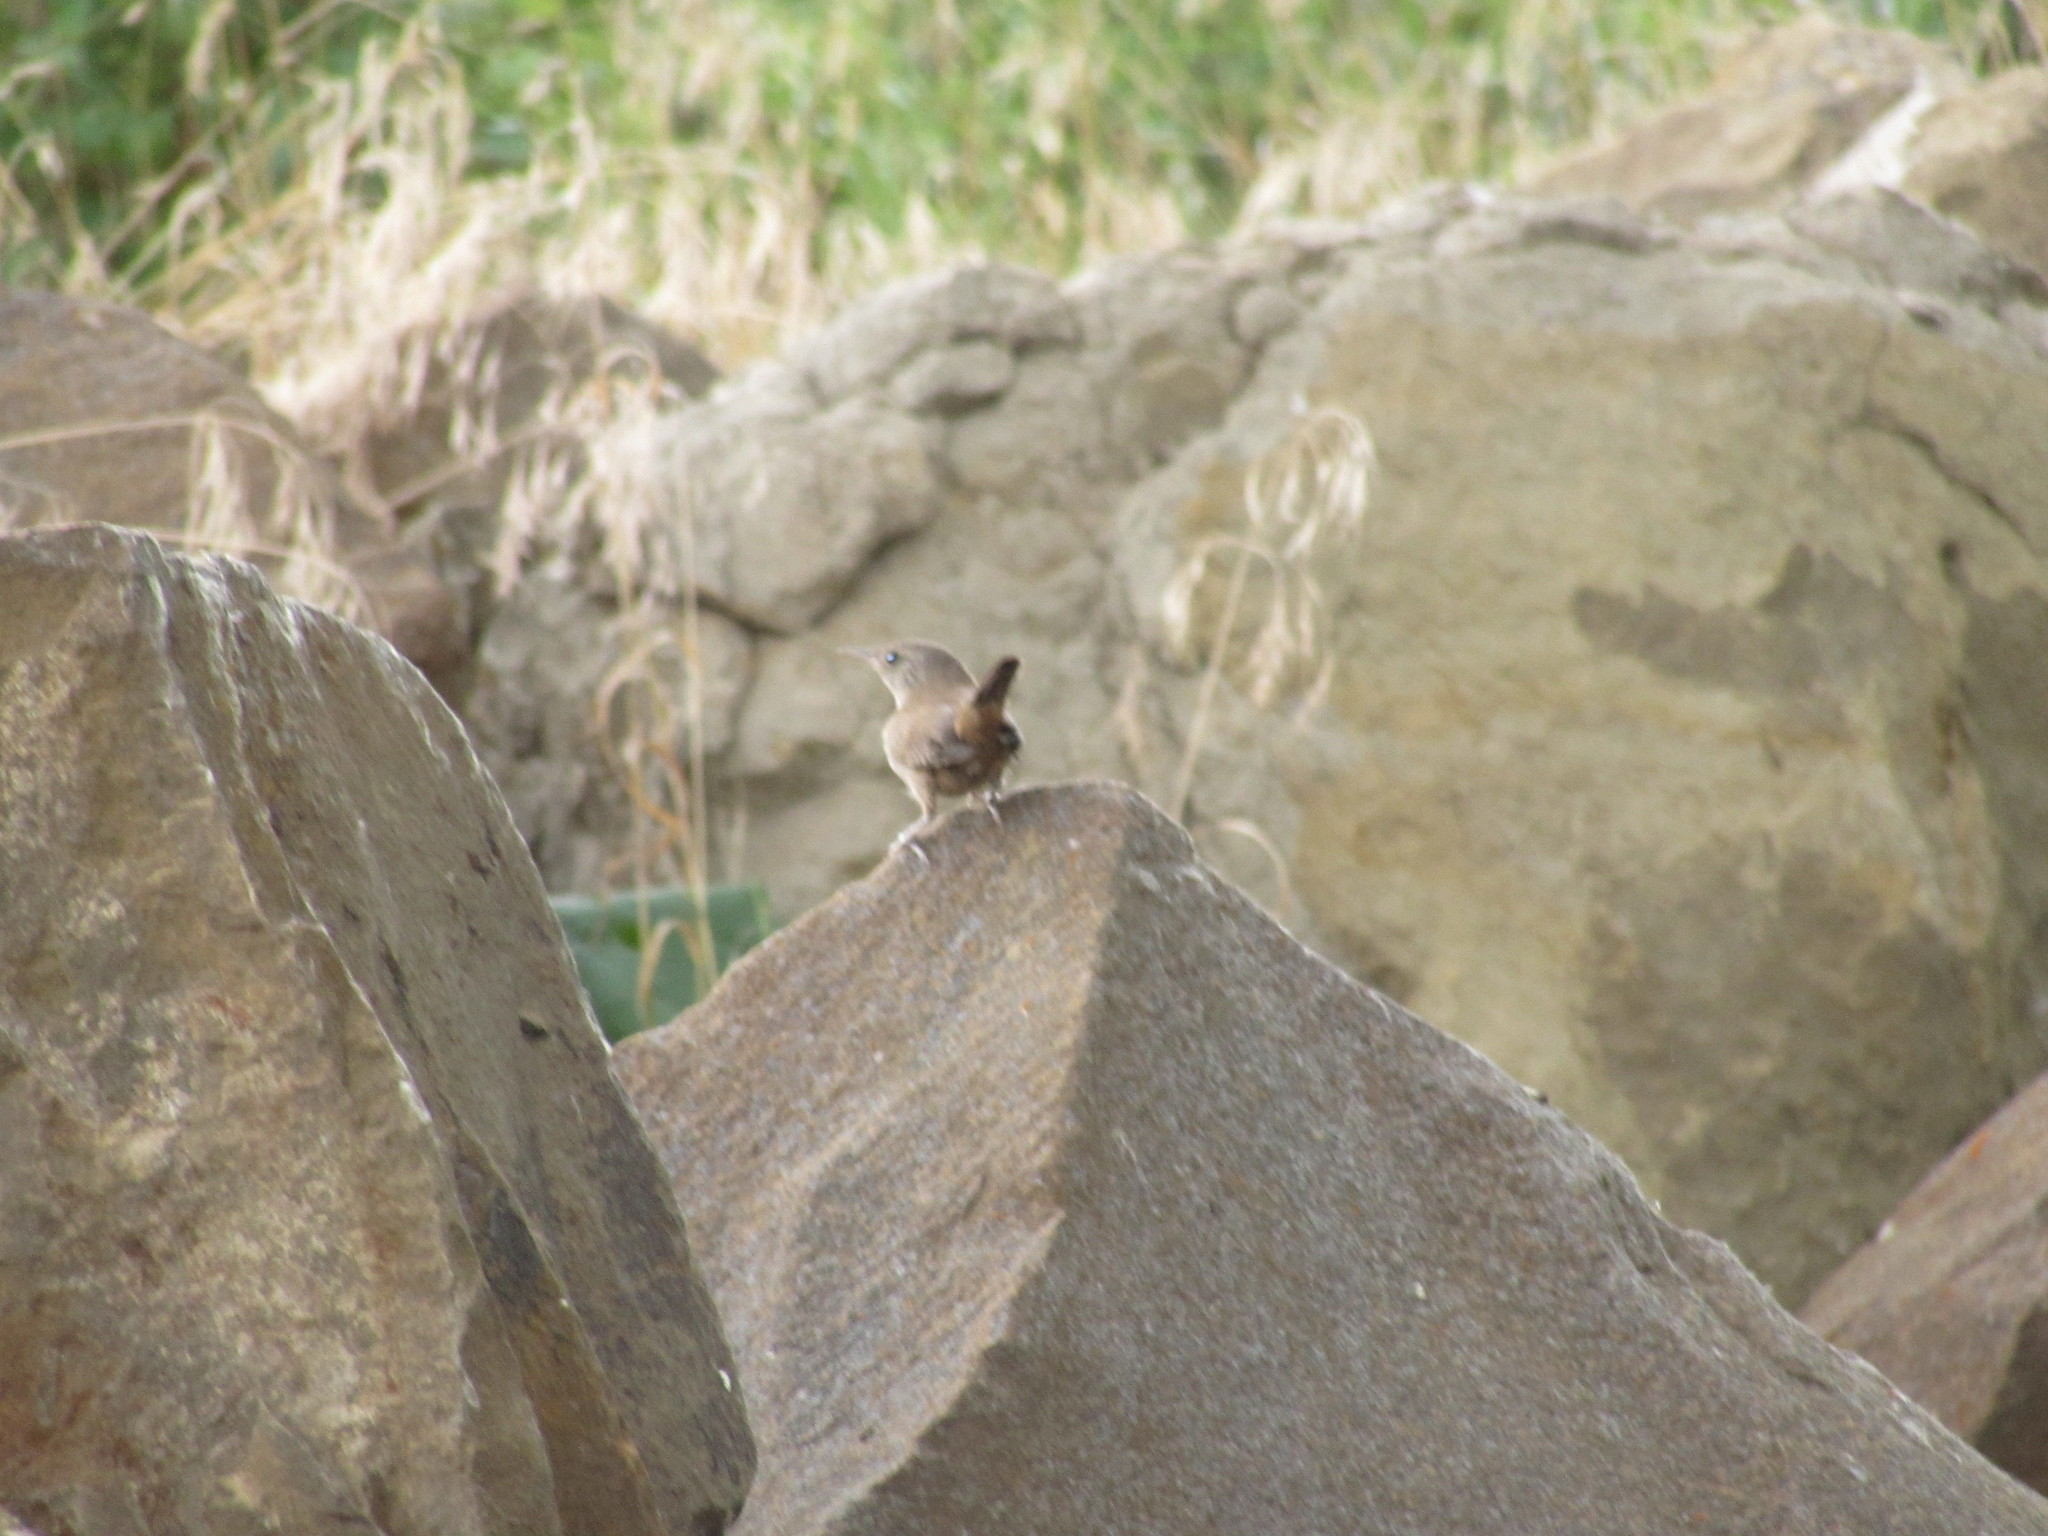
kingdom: Animalia
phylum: Chordata
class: Aves
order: Passeriformes
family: Troglodytidae
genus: Troglodytes
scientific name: Troglodytes aedon
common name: House wren
